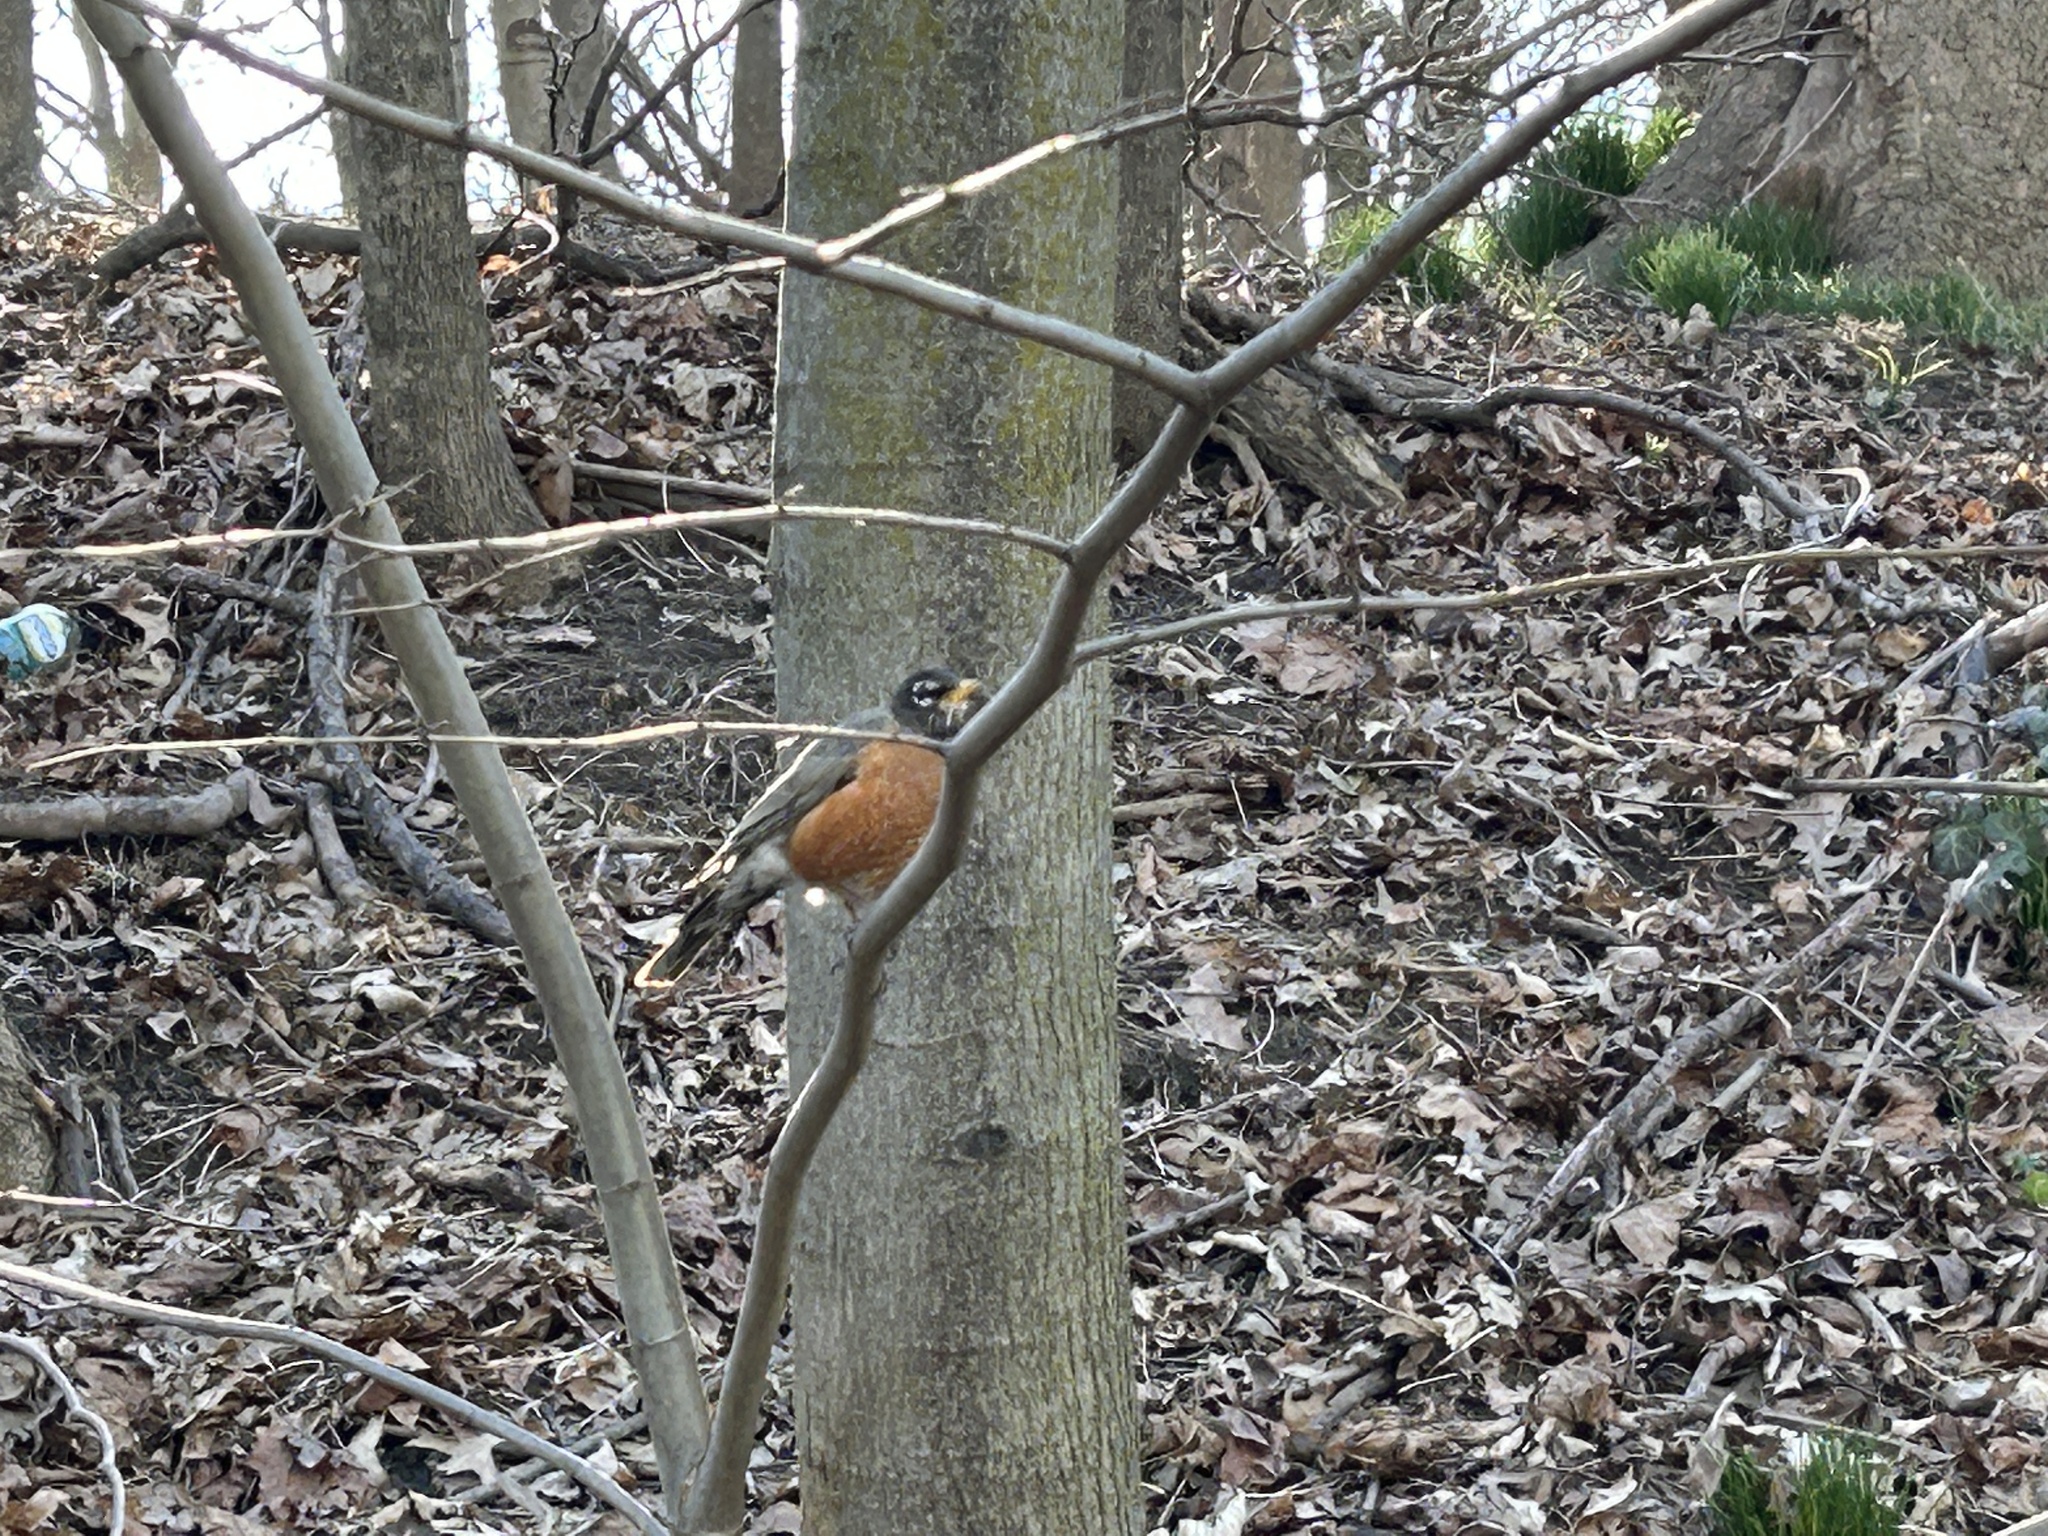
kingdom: Animalia
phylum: Chordata
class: Aves
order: Passeriformes
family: Turdidae
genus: Turdus
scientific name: Turdus migratorius
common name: American robin
